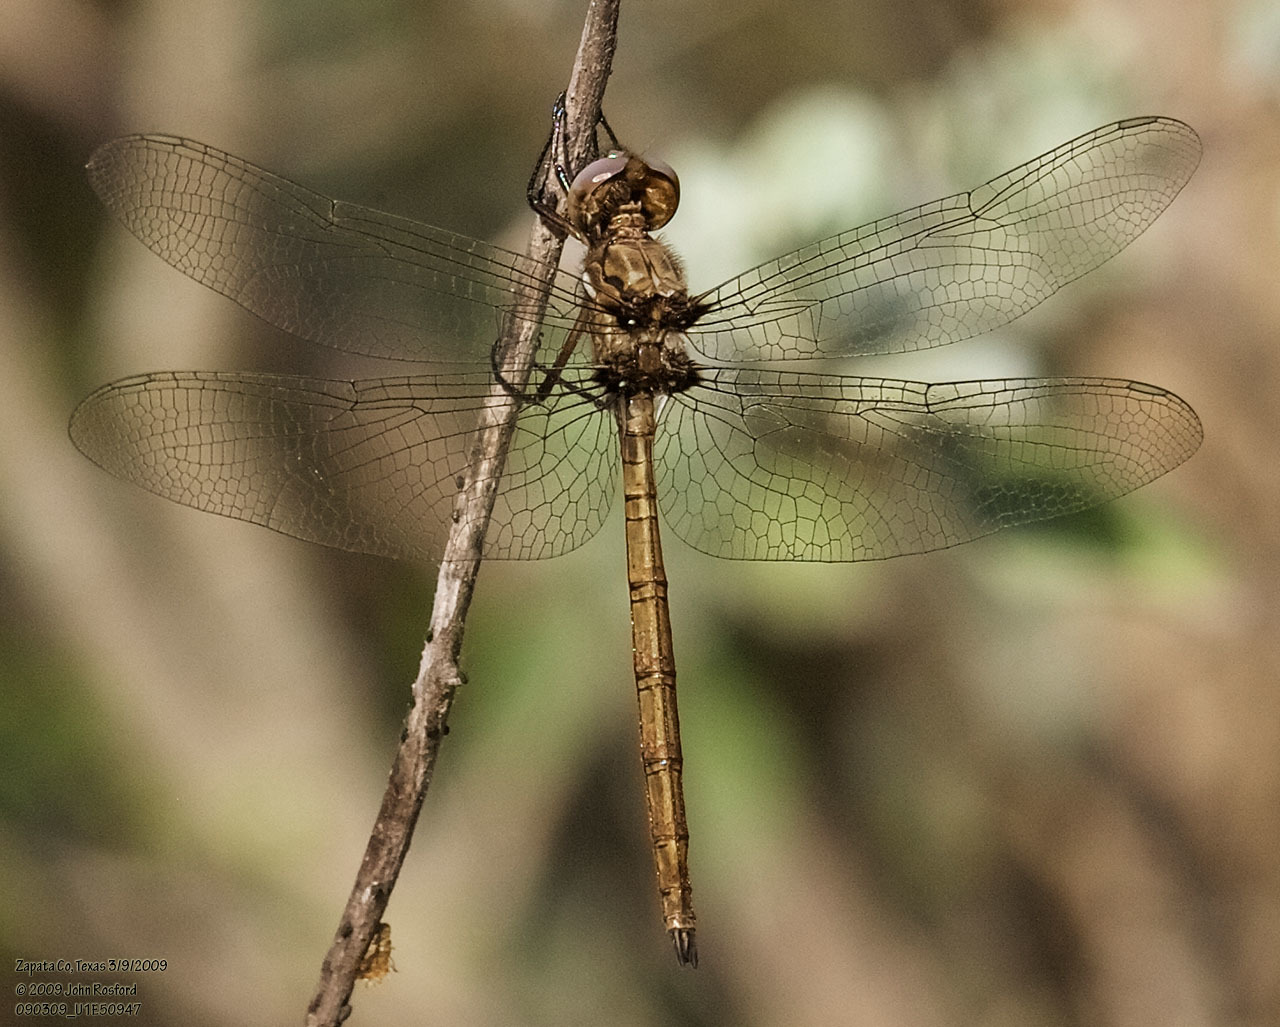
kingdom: Animalia
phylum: Arthropoda
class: Insecta
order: Odonata
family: Libellulidae
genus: Macrothemis
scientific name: Macrothemis inacuta
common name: Straw-colored sylph
